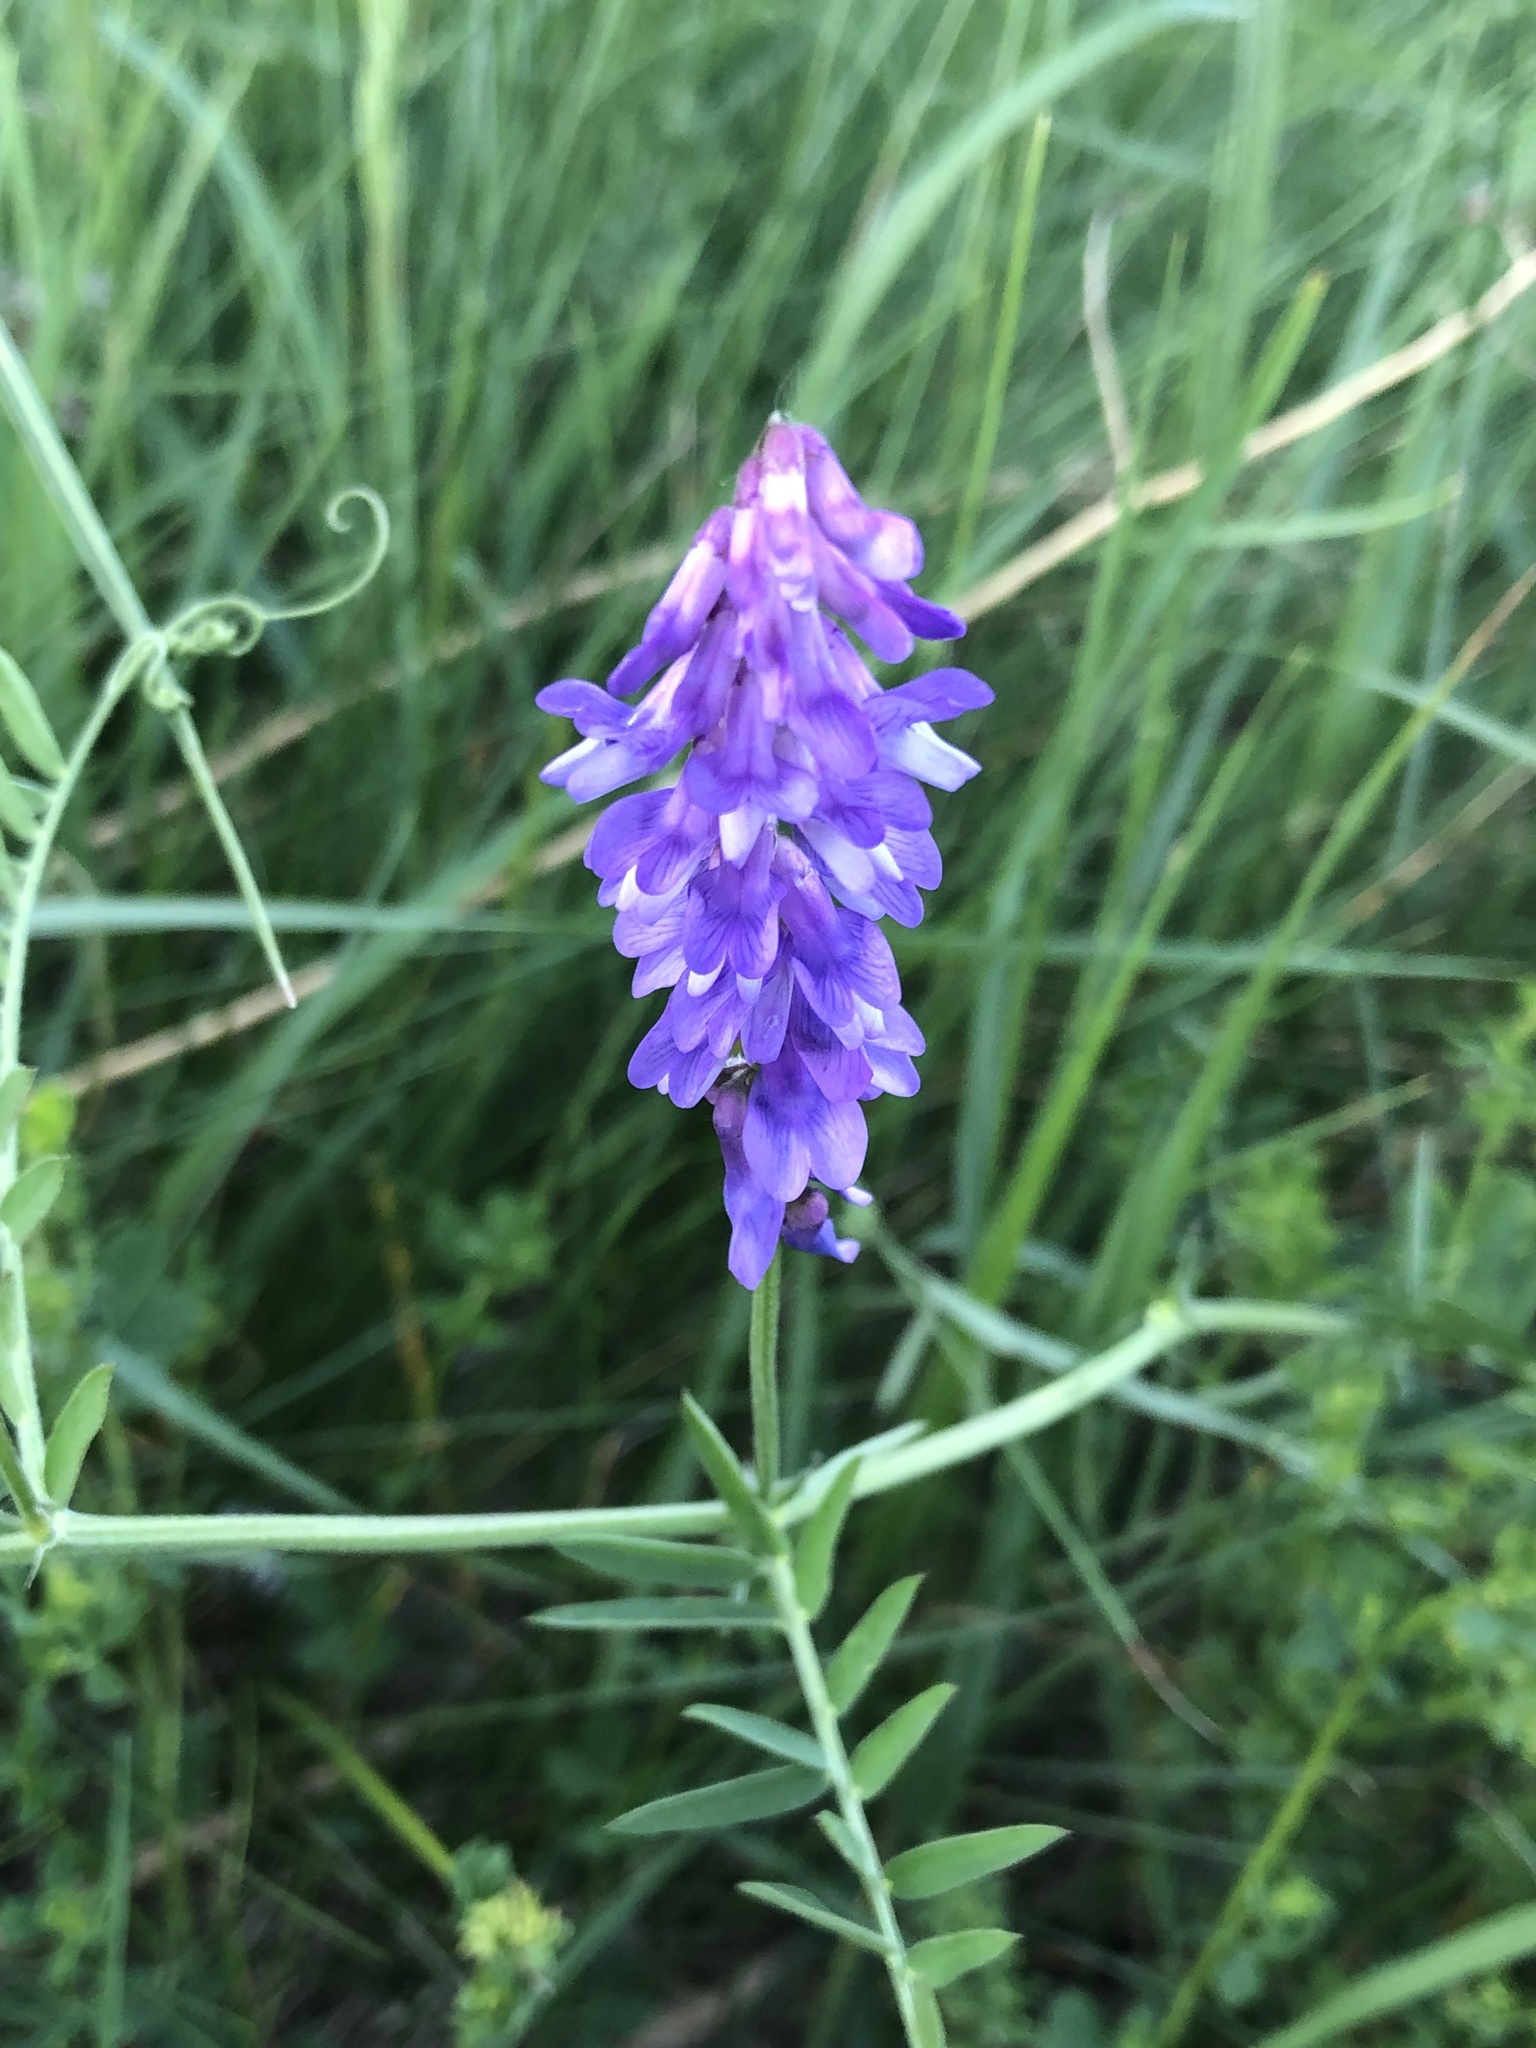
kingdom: Plantae
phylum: Tracheophyta
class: Magnoliopsida
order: Fabales
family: Fabaceae
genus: Vicia
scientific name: Vicia cracca
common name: Bird vetch
